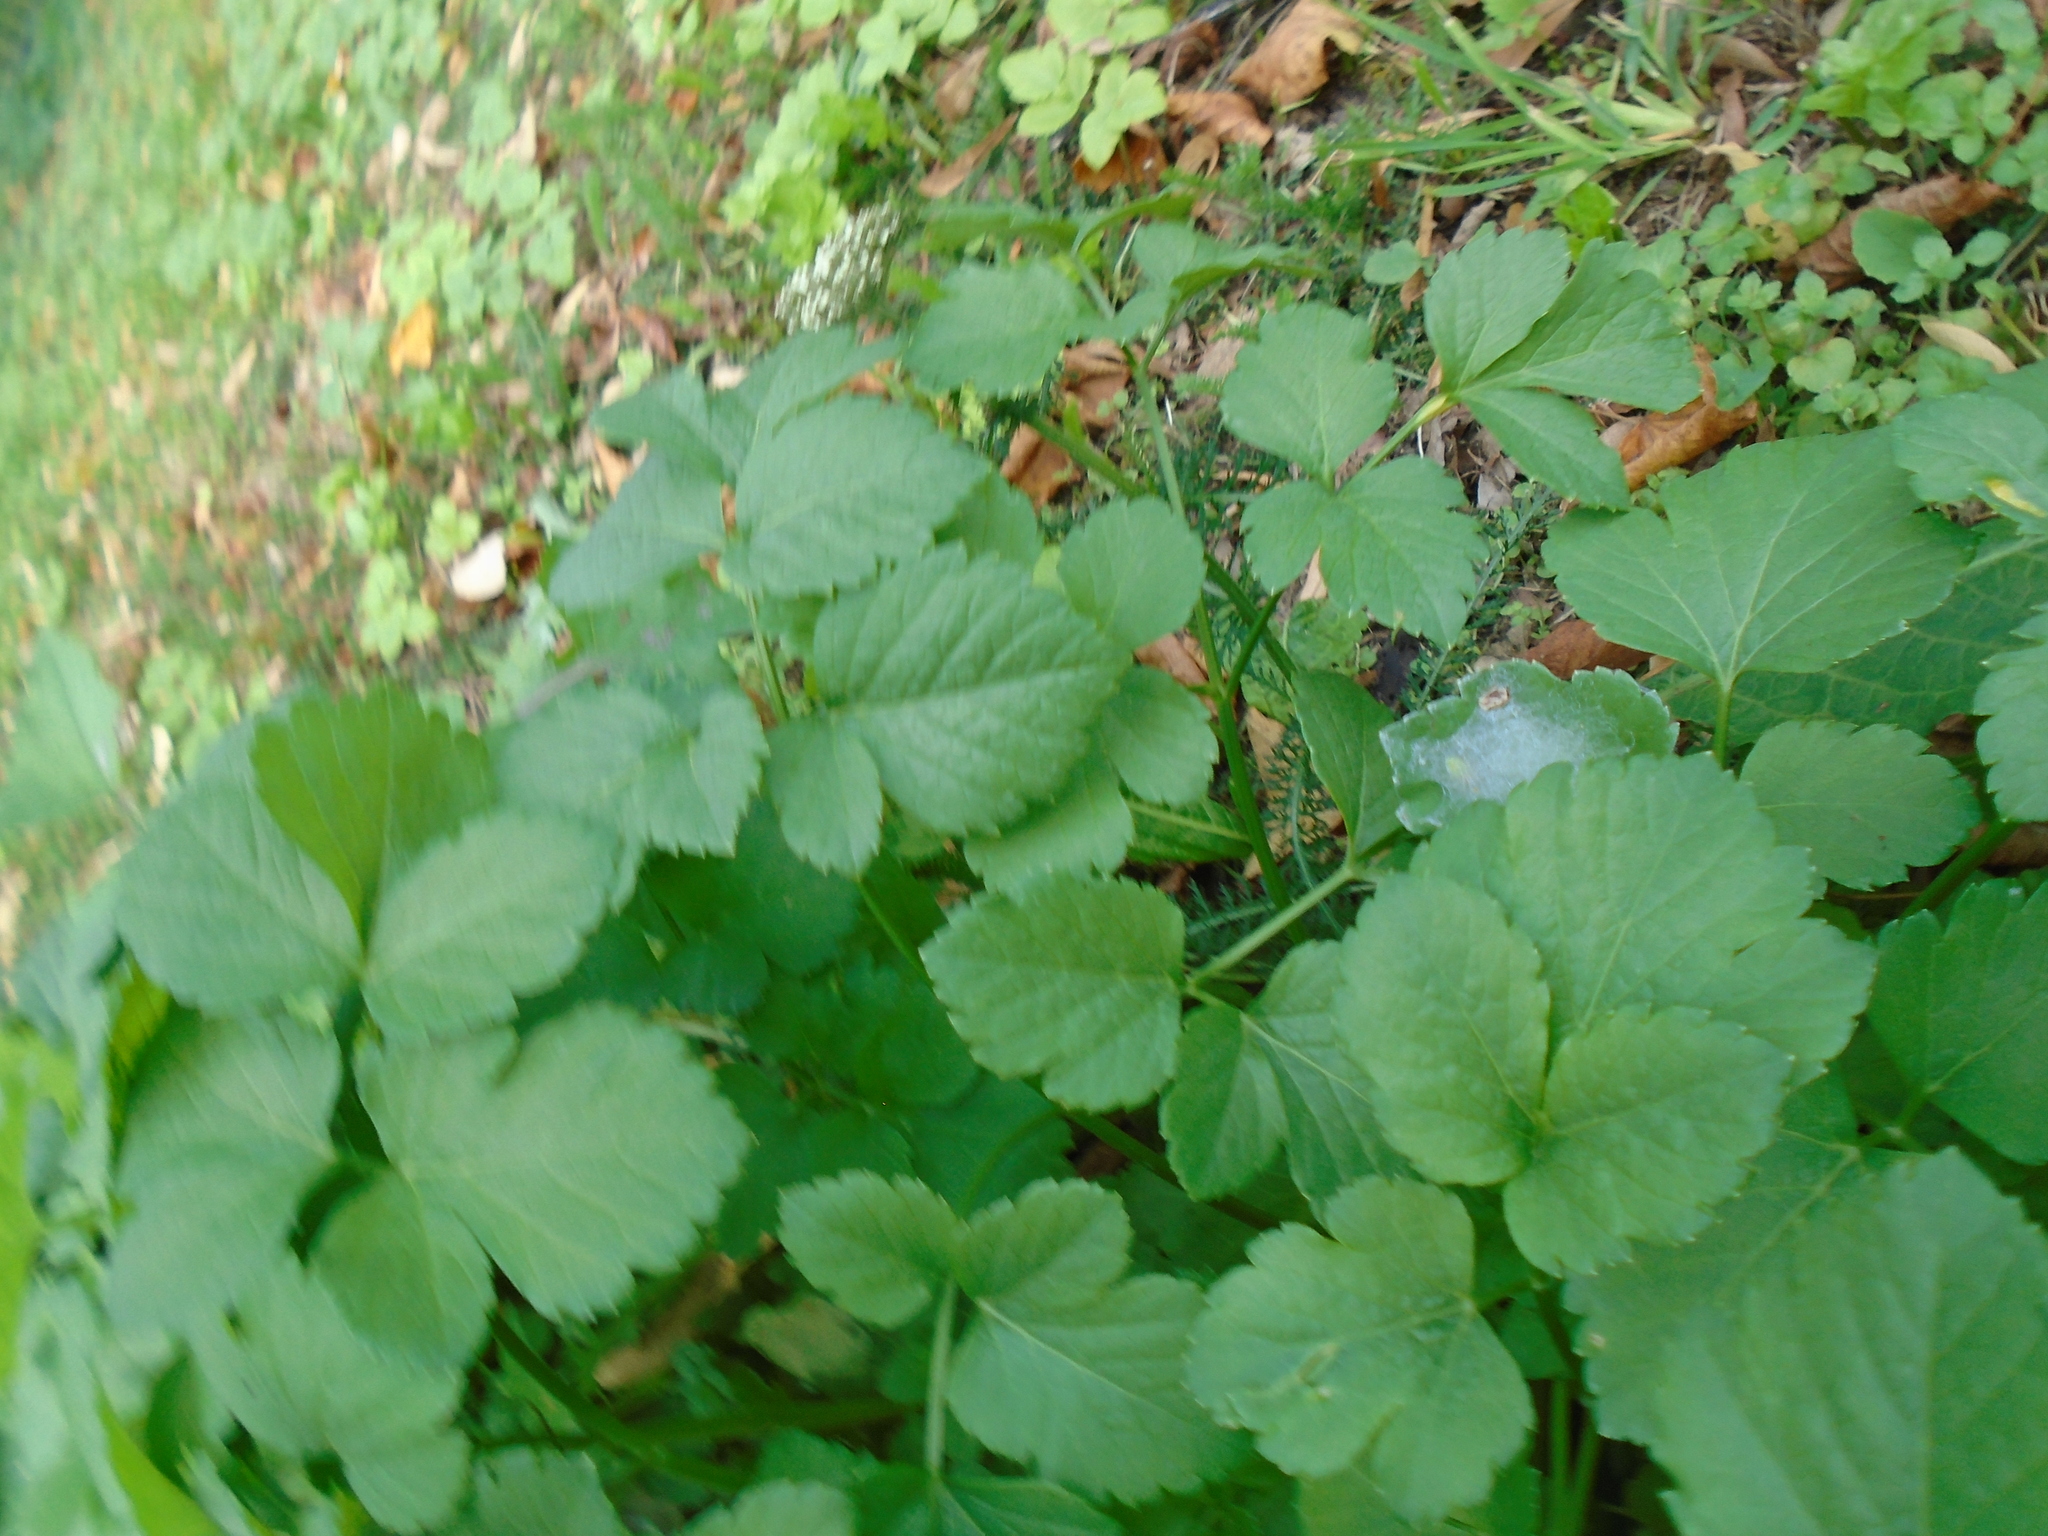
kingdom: Plantae
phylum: Tracheophyta
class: Magnoliopsida
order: Apiales
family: Apiaceae
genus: Smyrnium
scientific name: Smyrnium olusatrum
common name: Alexanders
